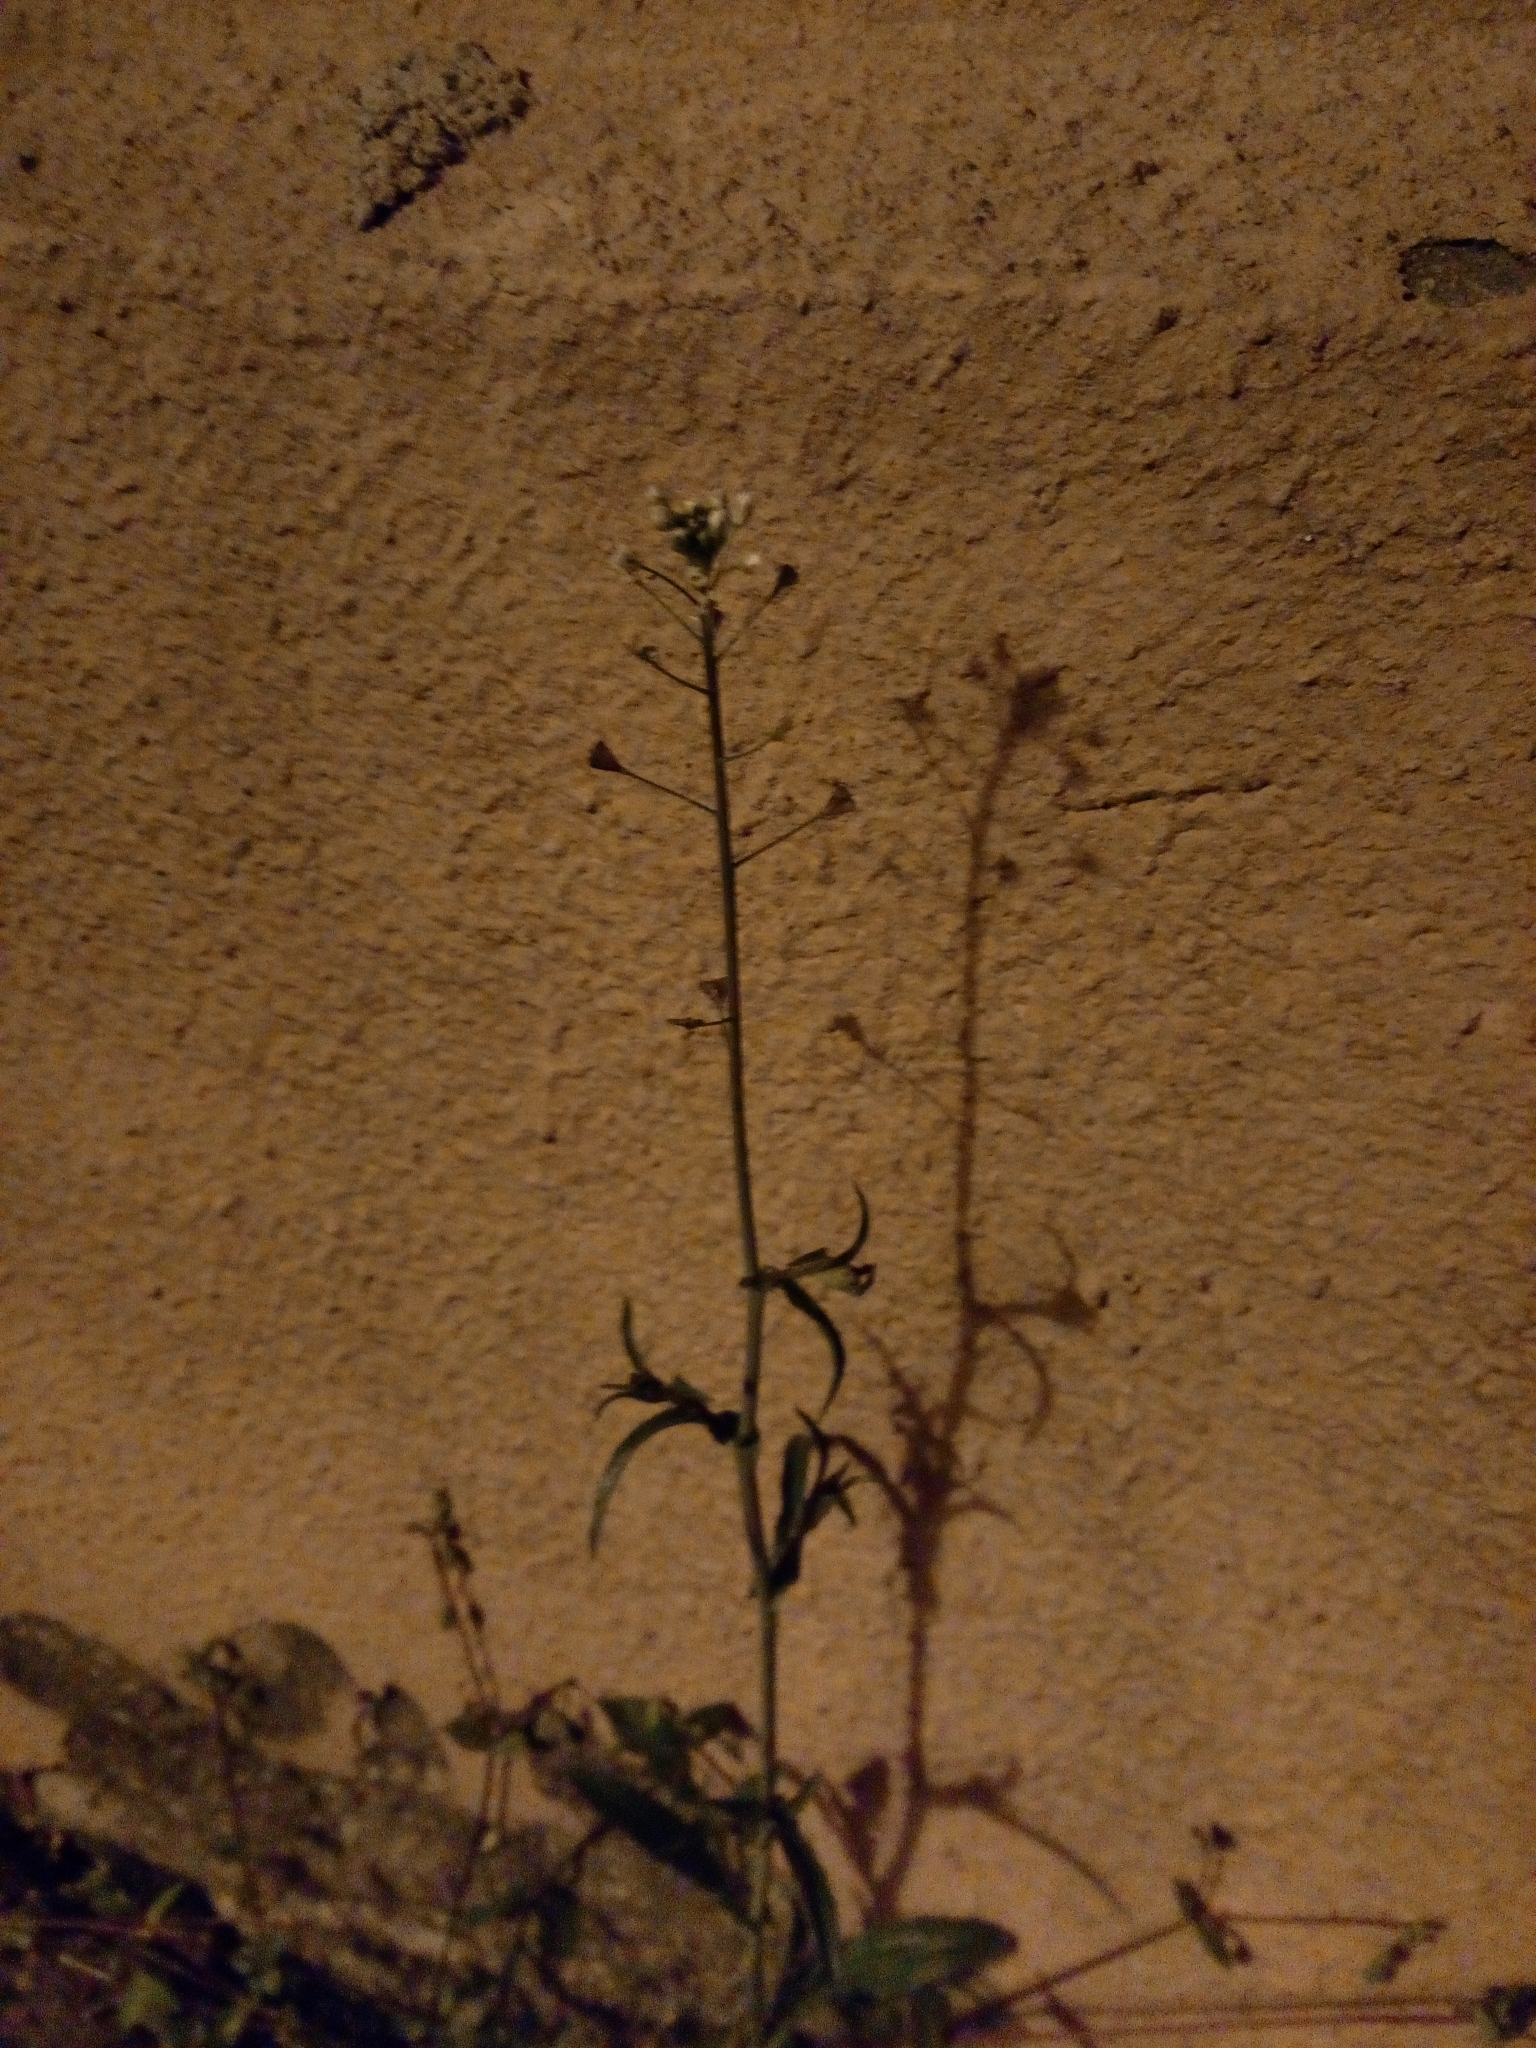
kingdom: Plantae
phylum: Tracheophyta
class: Magnoliopsida
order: Brassicales
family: Brassicaceae
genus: Capsella
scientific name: Capsella bursa-pastoris
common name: Shepherd's purse
